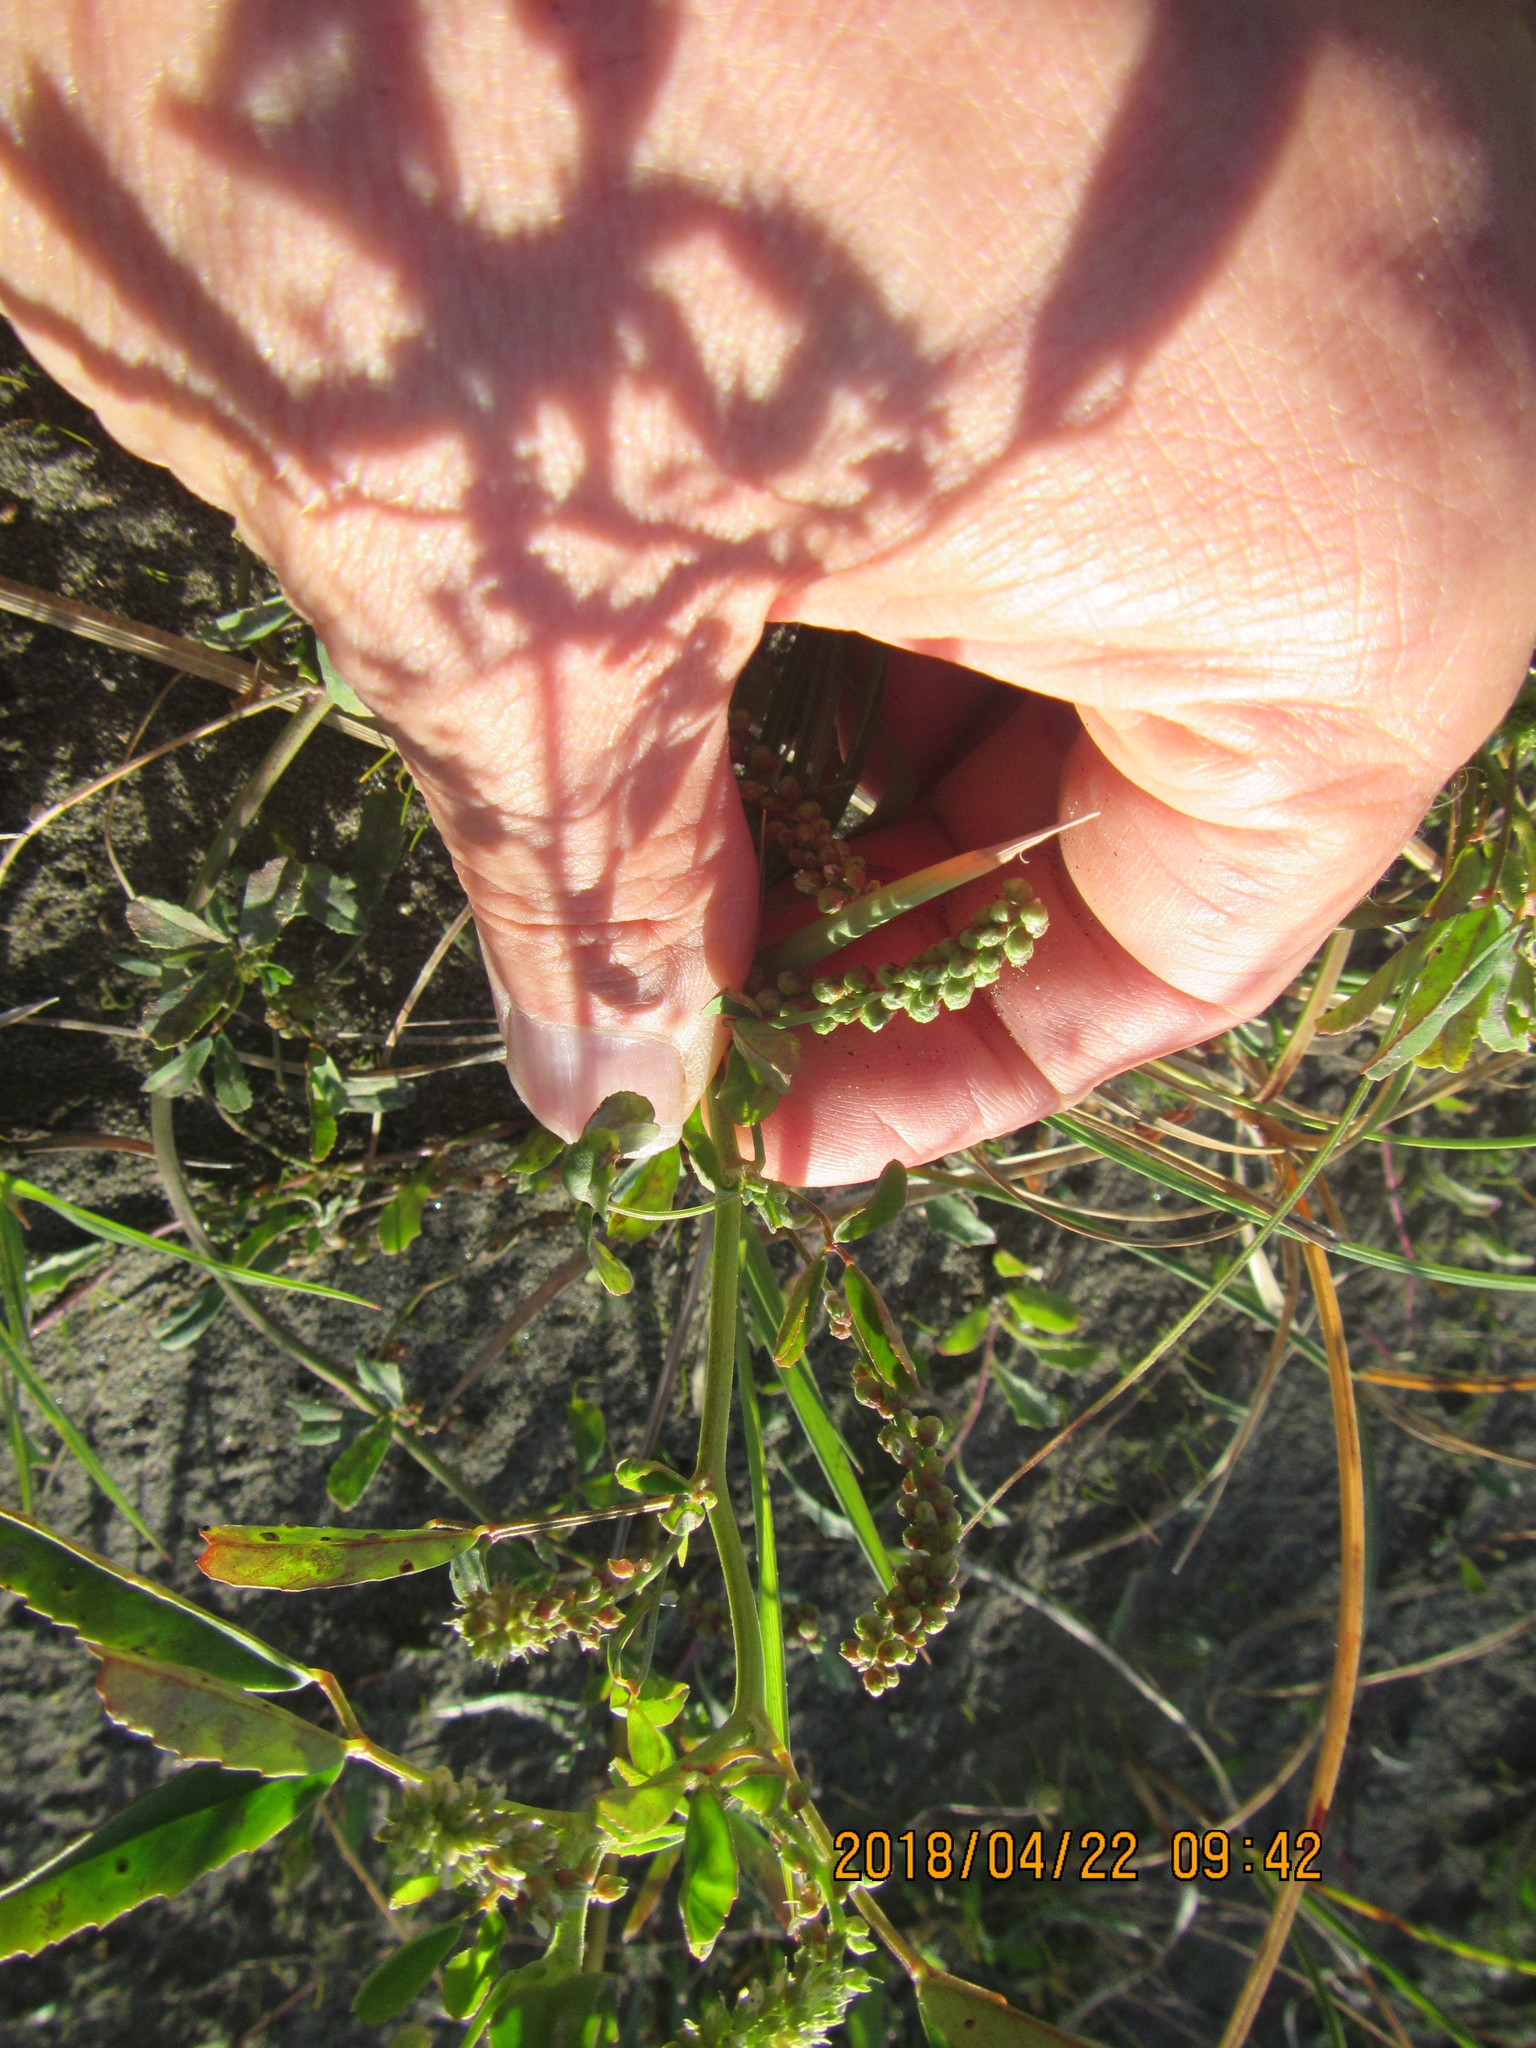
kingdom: Plantae
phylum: Tracheophyta
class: Magnoliopsida
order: Fabales
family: Fabaceae
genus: Melilotus
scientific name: Melilotus indicus
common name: Small melilot
